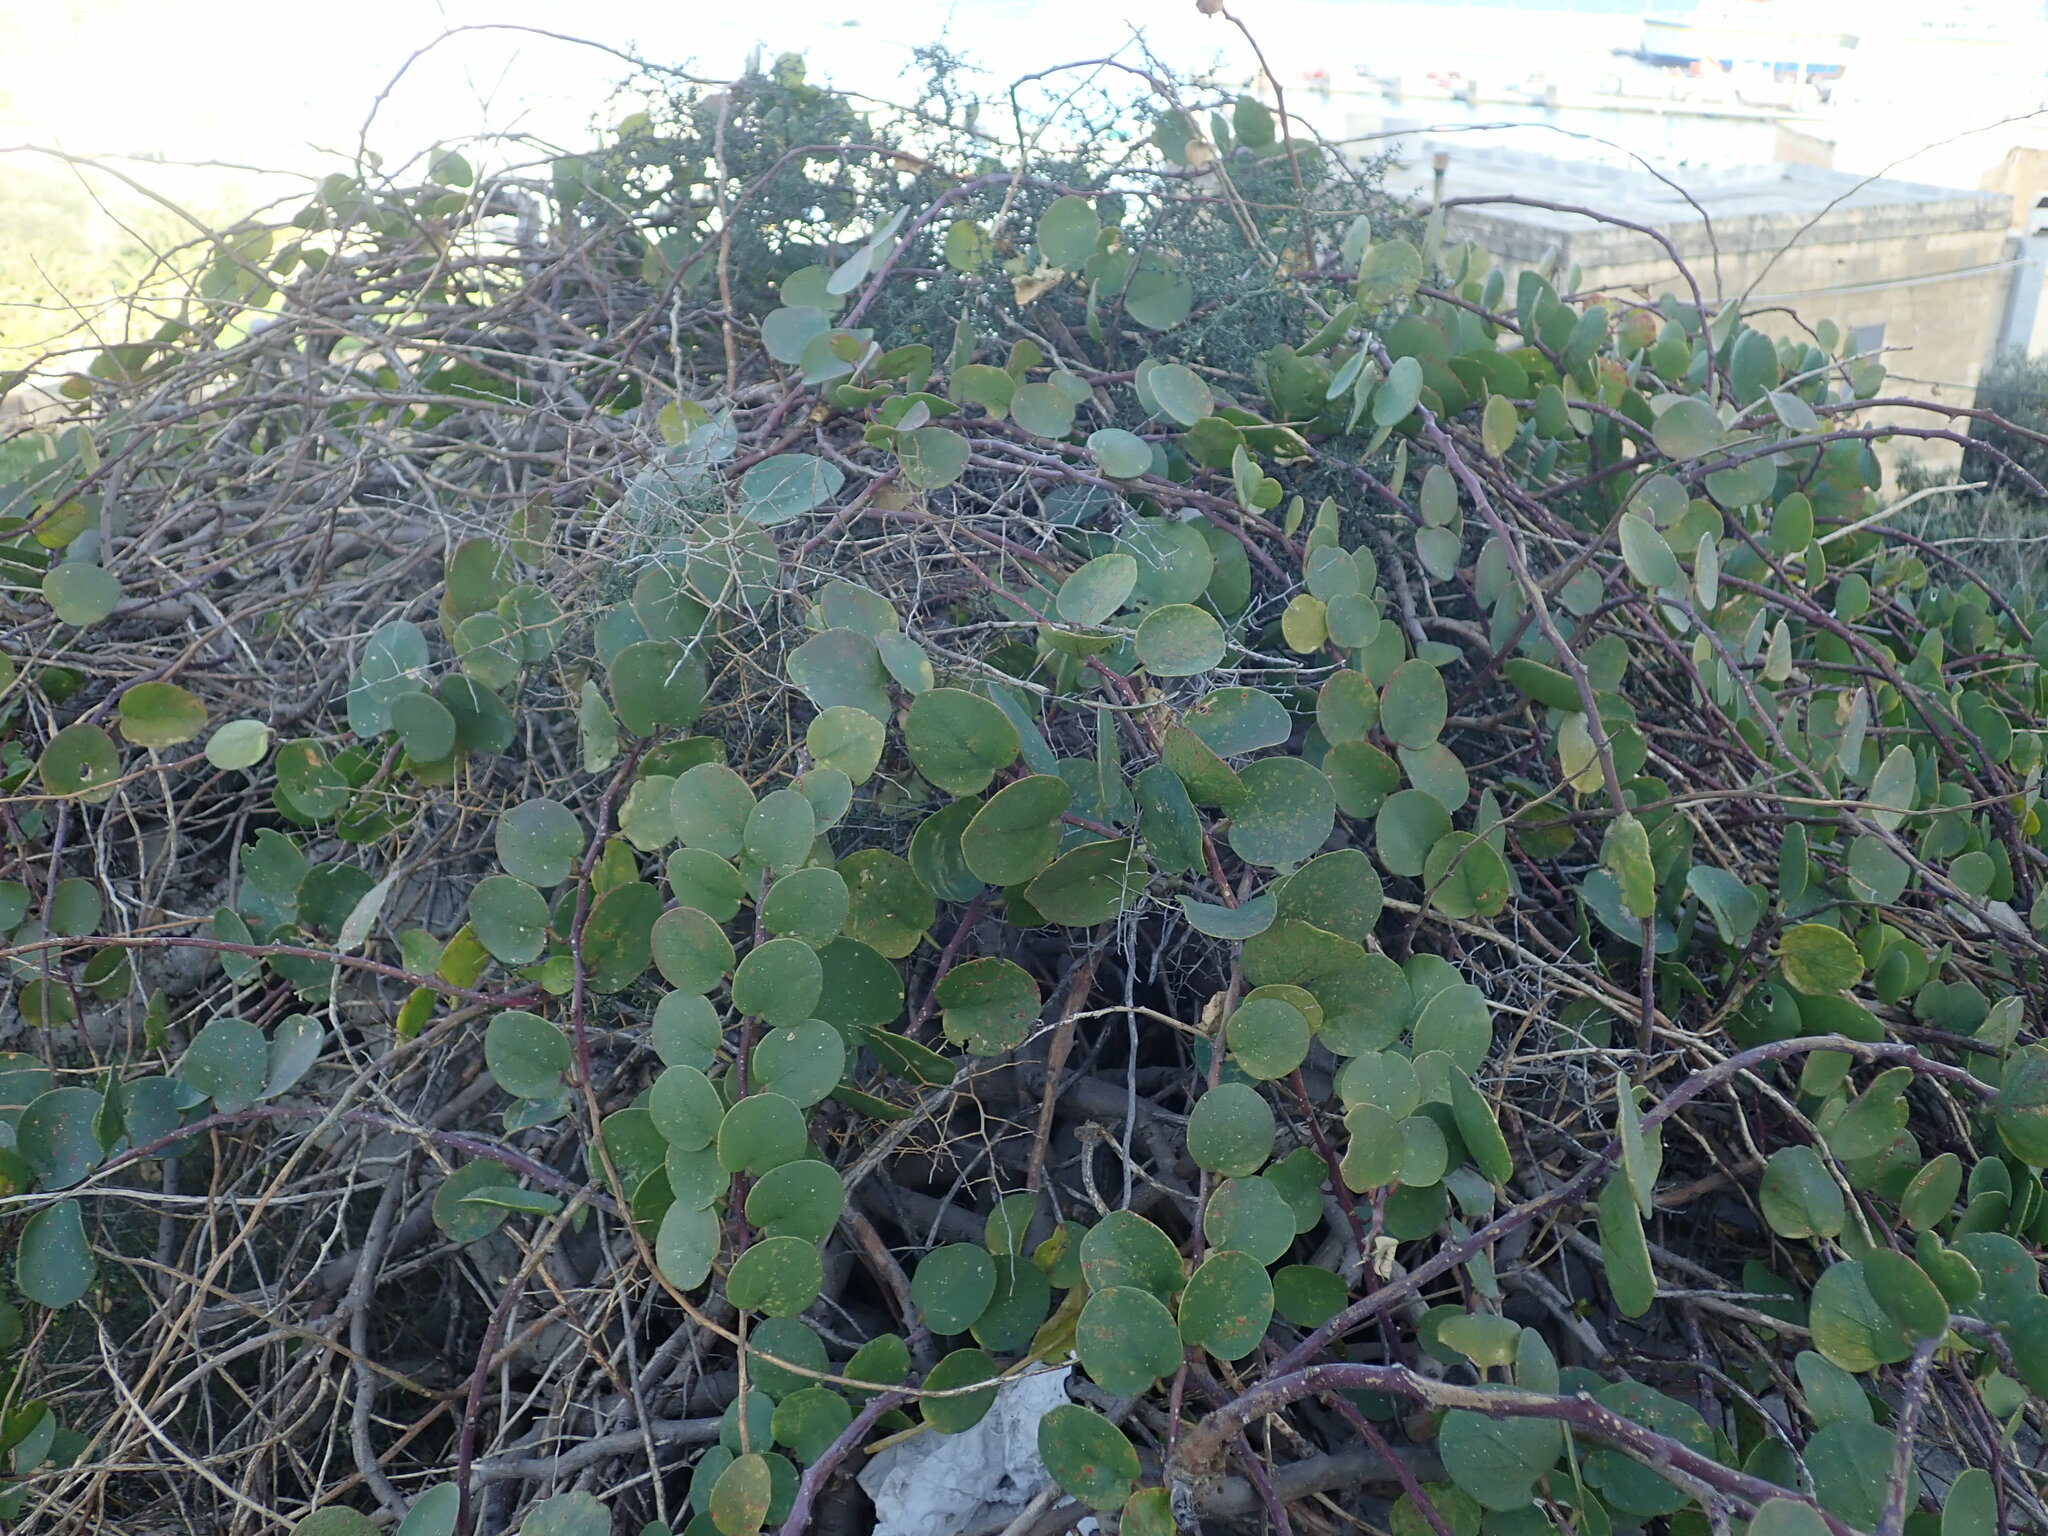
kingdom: Plantae
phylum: Tracheophyta
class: Magnoliopsida
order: Brassicales
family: Capparaceae
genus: Capparis
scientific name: Capparis orientalis
